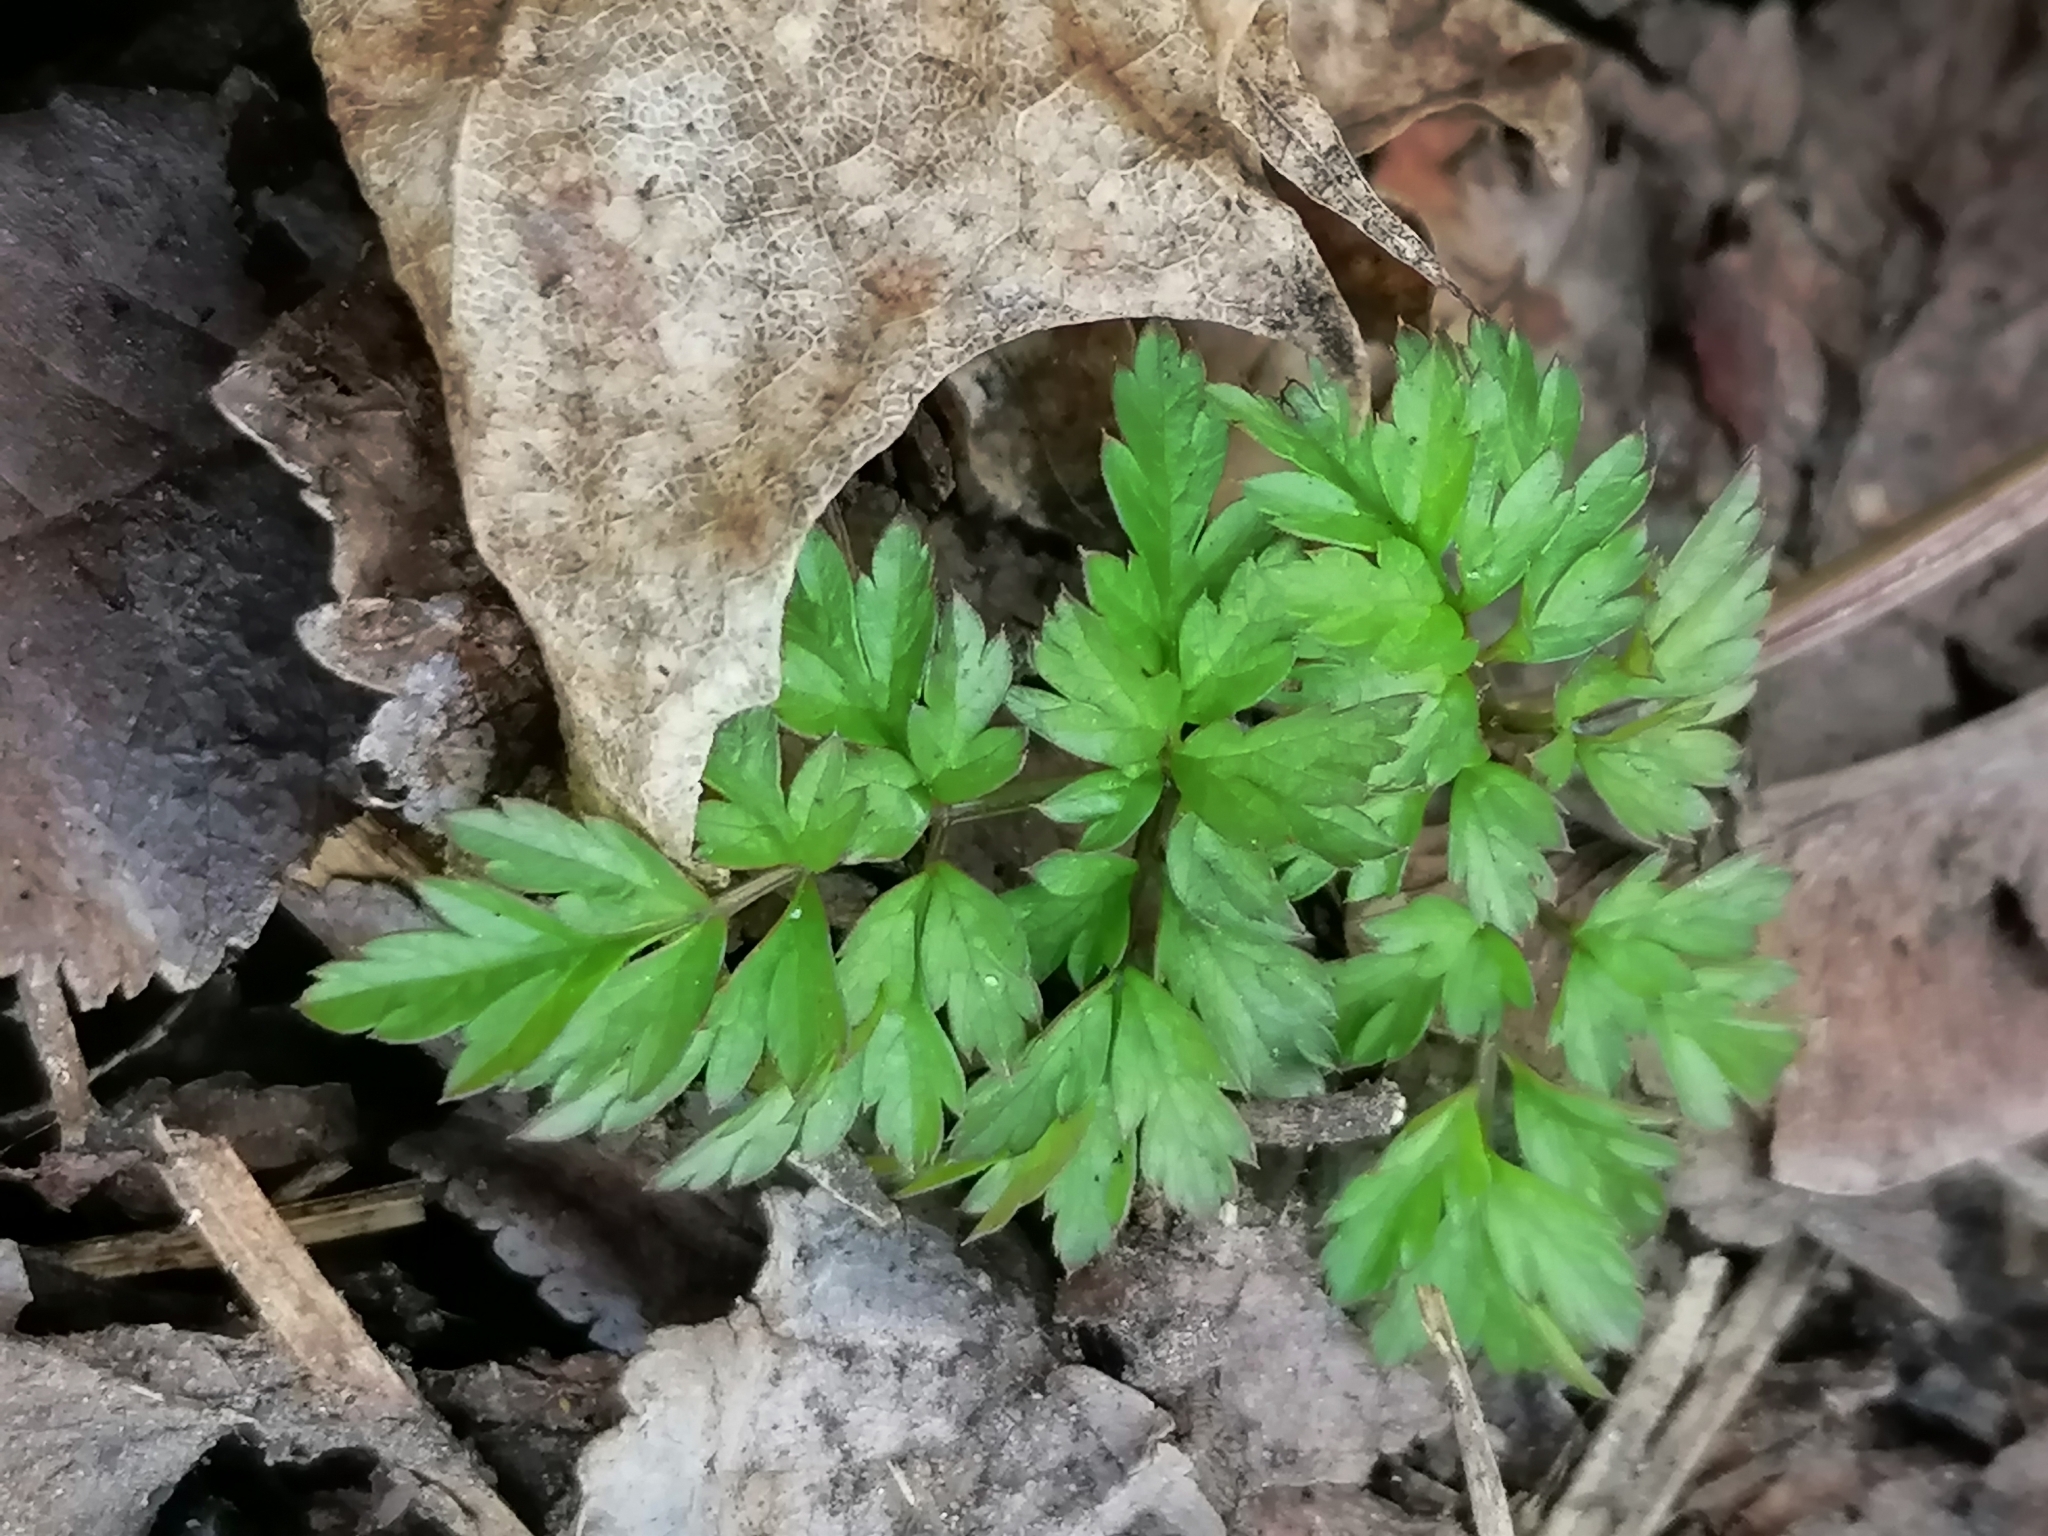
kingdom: Plantae
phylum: Tracheophyta
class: Magnoliopsida
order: Apiales
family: Apiaceae
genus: Anthriscus
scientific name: Anthriscus sylvestris
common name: Cow parsley
